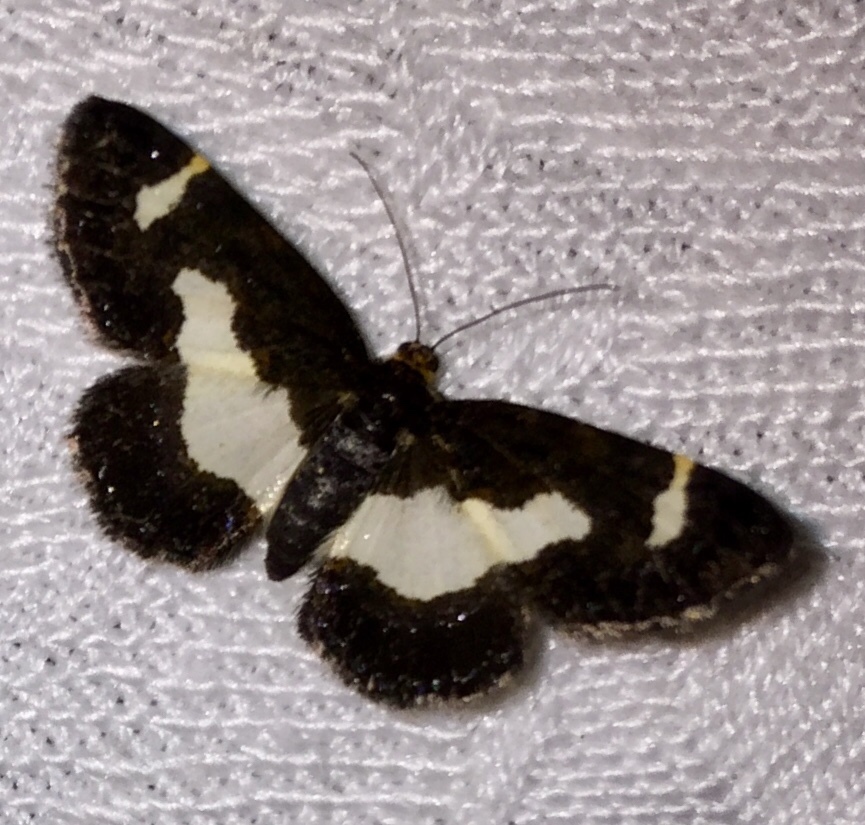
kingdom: Animalia
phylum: Arthropoda
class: Insecta
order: Lepidoptera
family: Geometridae
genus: Heliomata
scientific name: Heliomata cycladata
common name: Common spring moth
